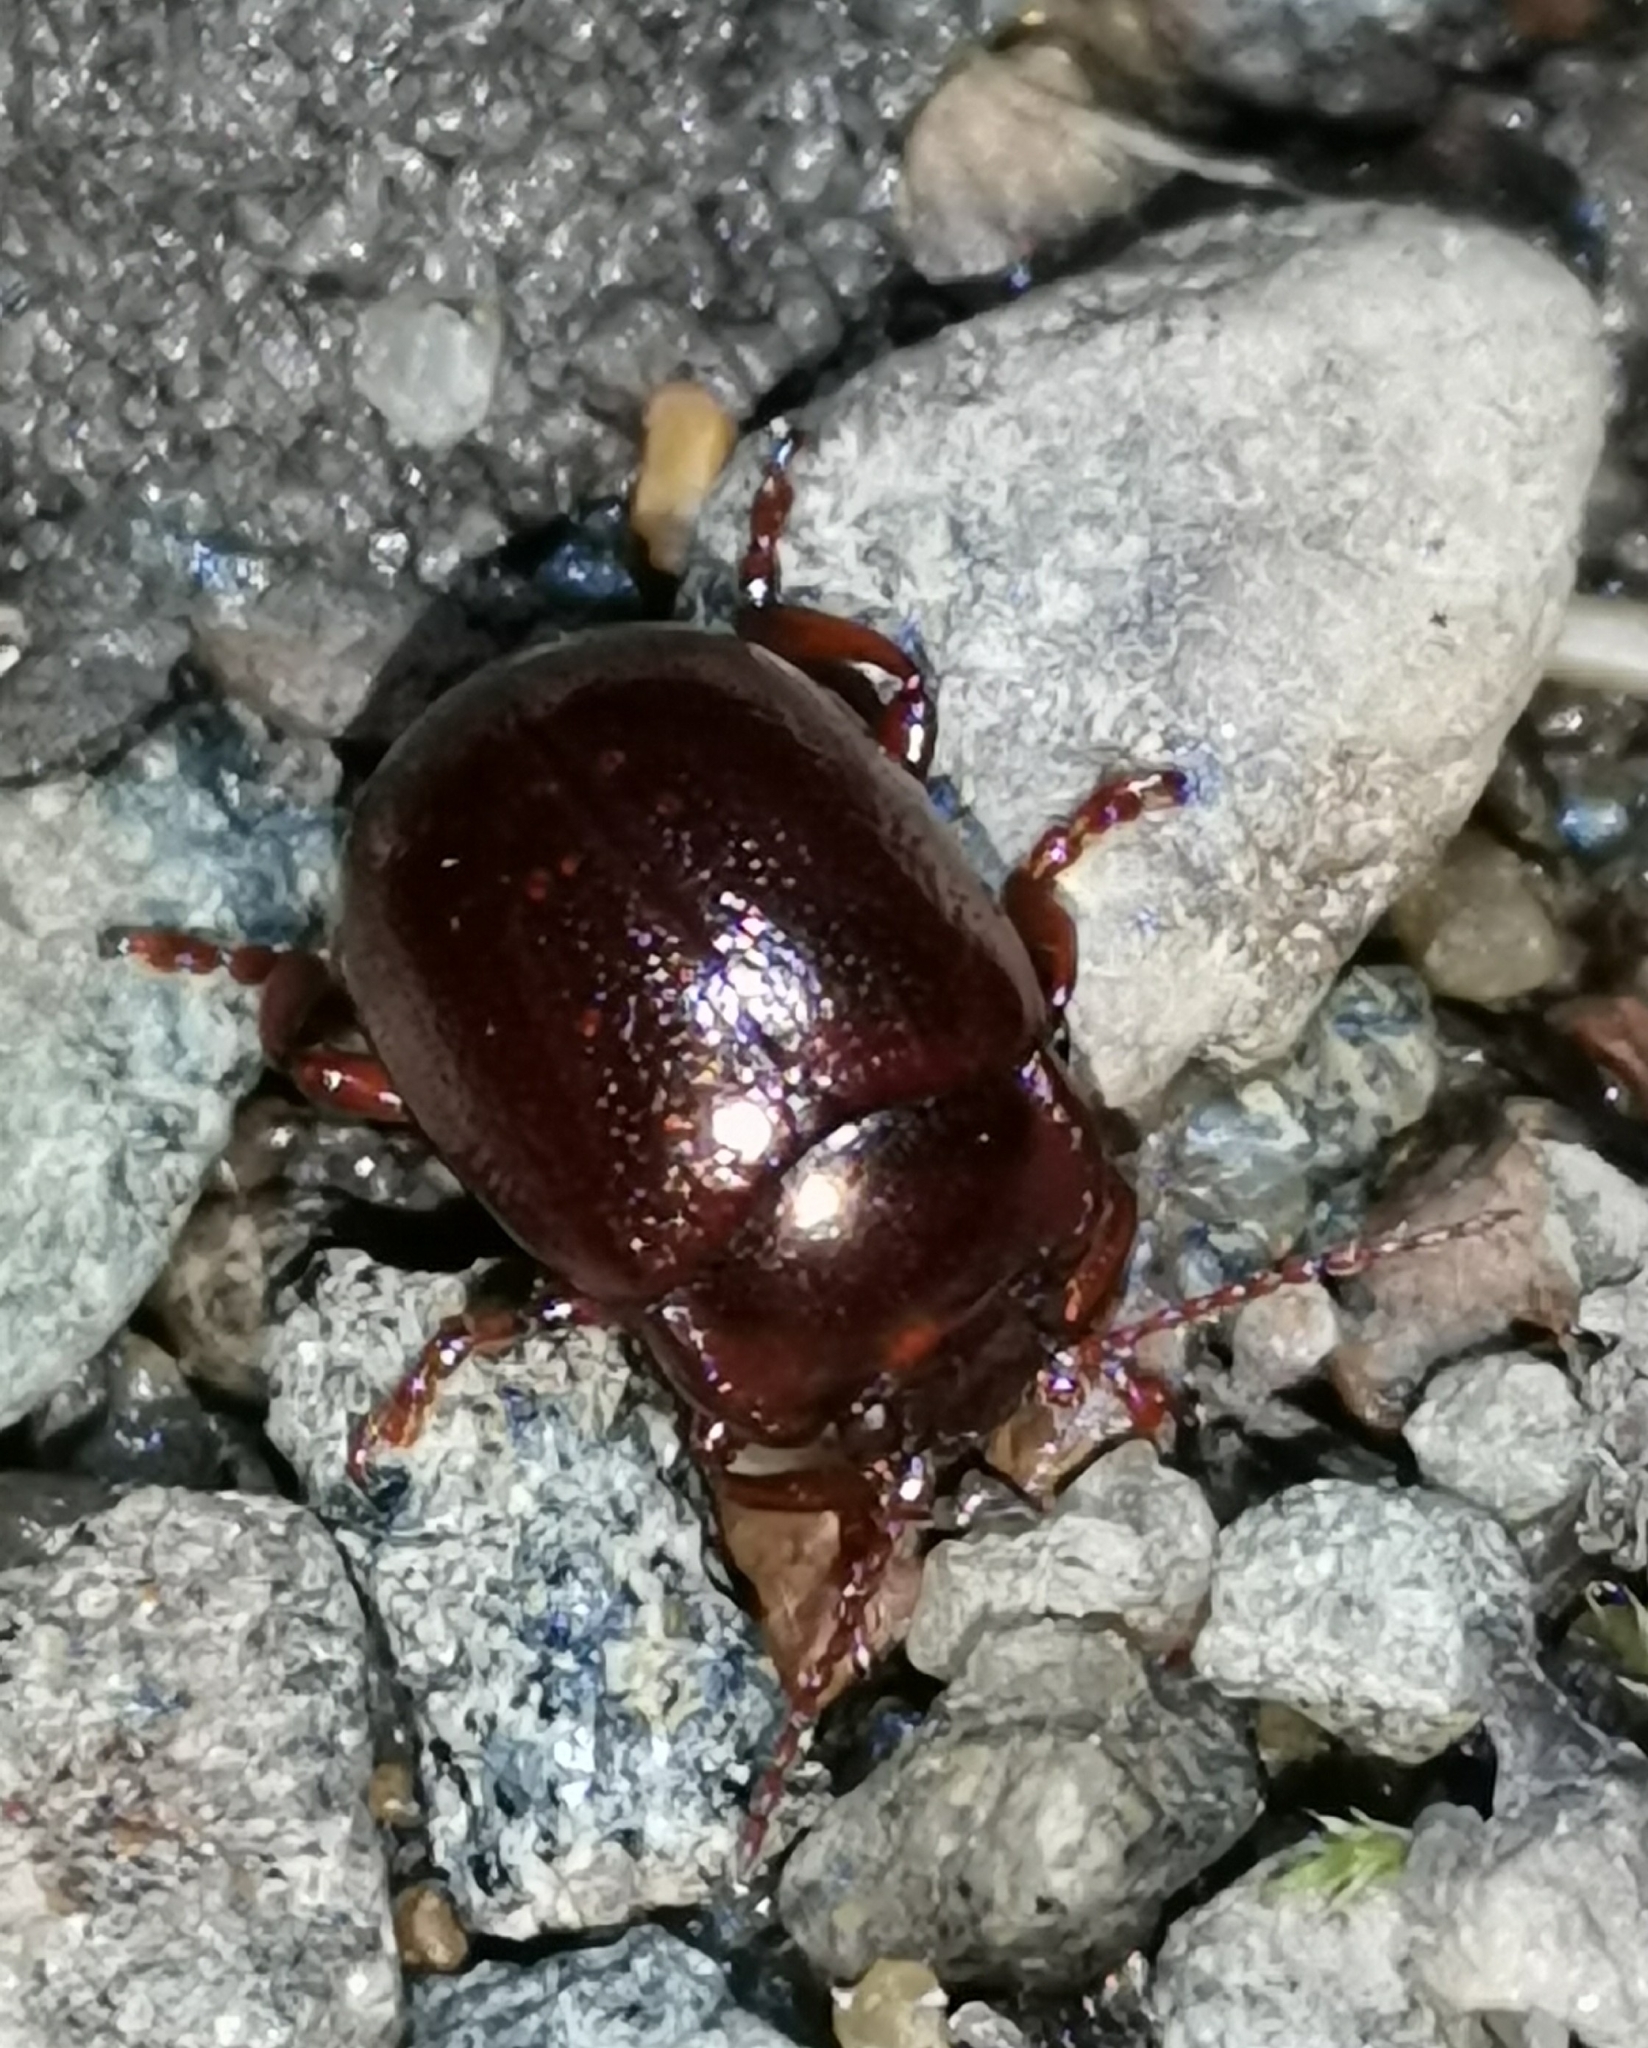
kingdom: Animalia
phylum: Arthropoda
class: Insecta
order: Coleoptera
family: Chrysomelidae
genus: Chrysolina
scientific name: Chrysolina staphylaea
